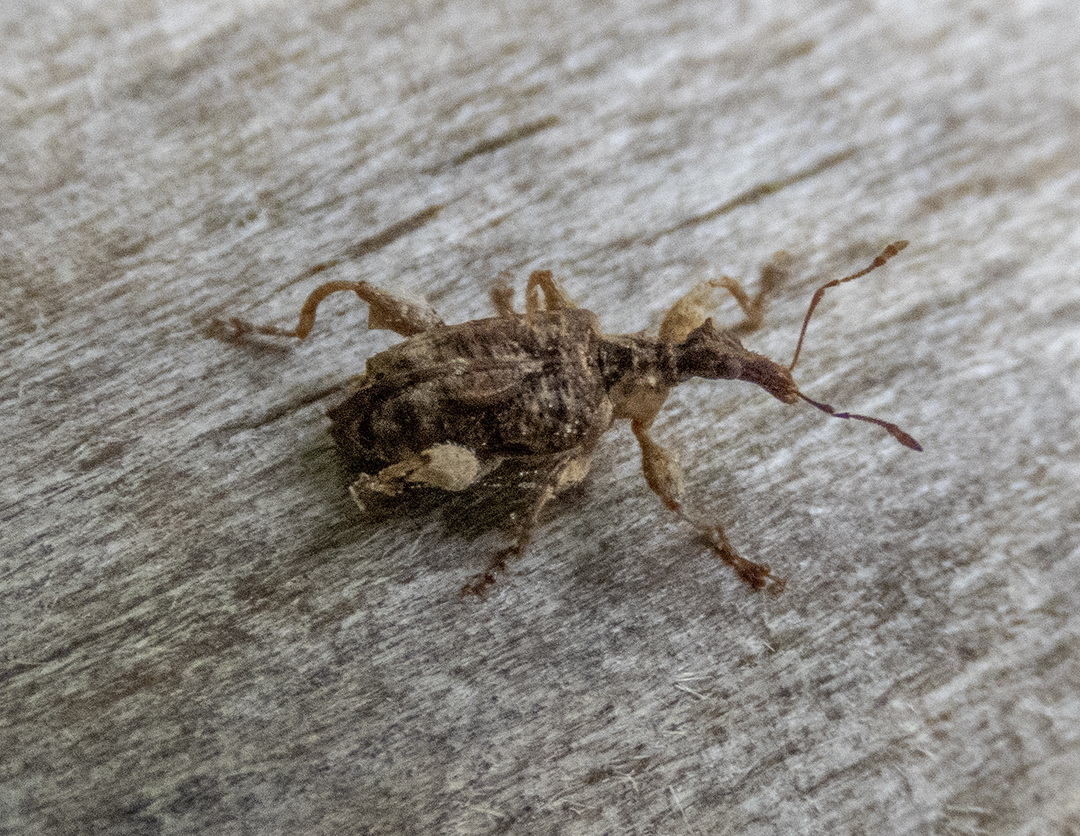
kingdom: Animalia
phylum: Arthropoda
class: Insecta
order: Coleoptera
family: Curculionidae
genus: Stephanorhynchus
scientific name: Stephanorhynchus curvipes
